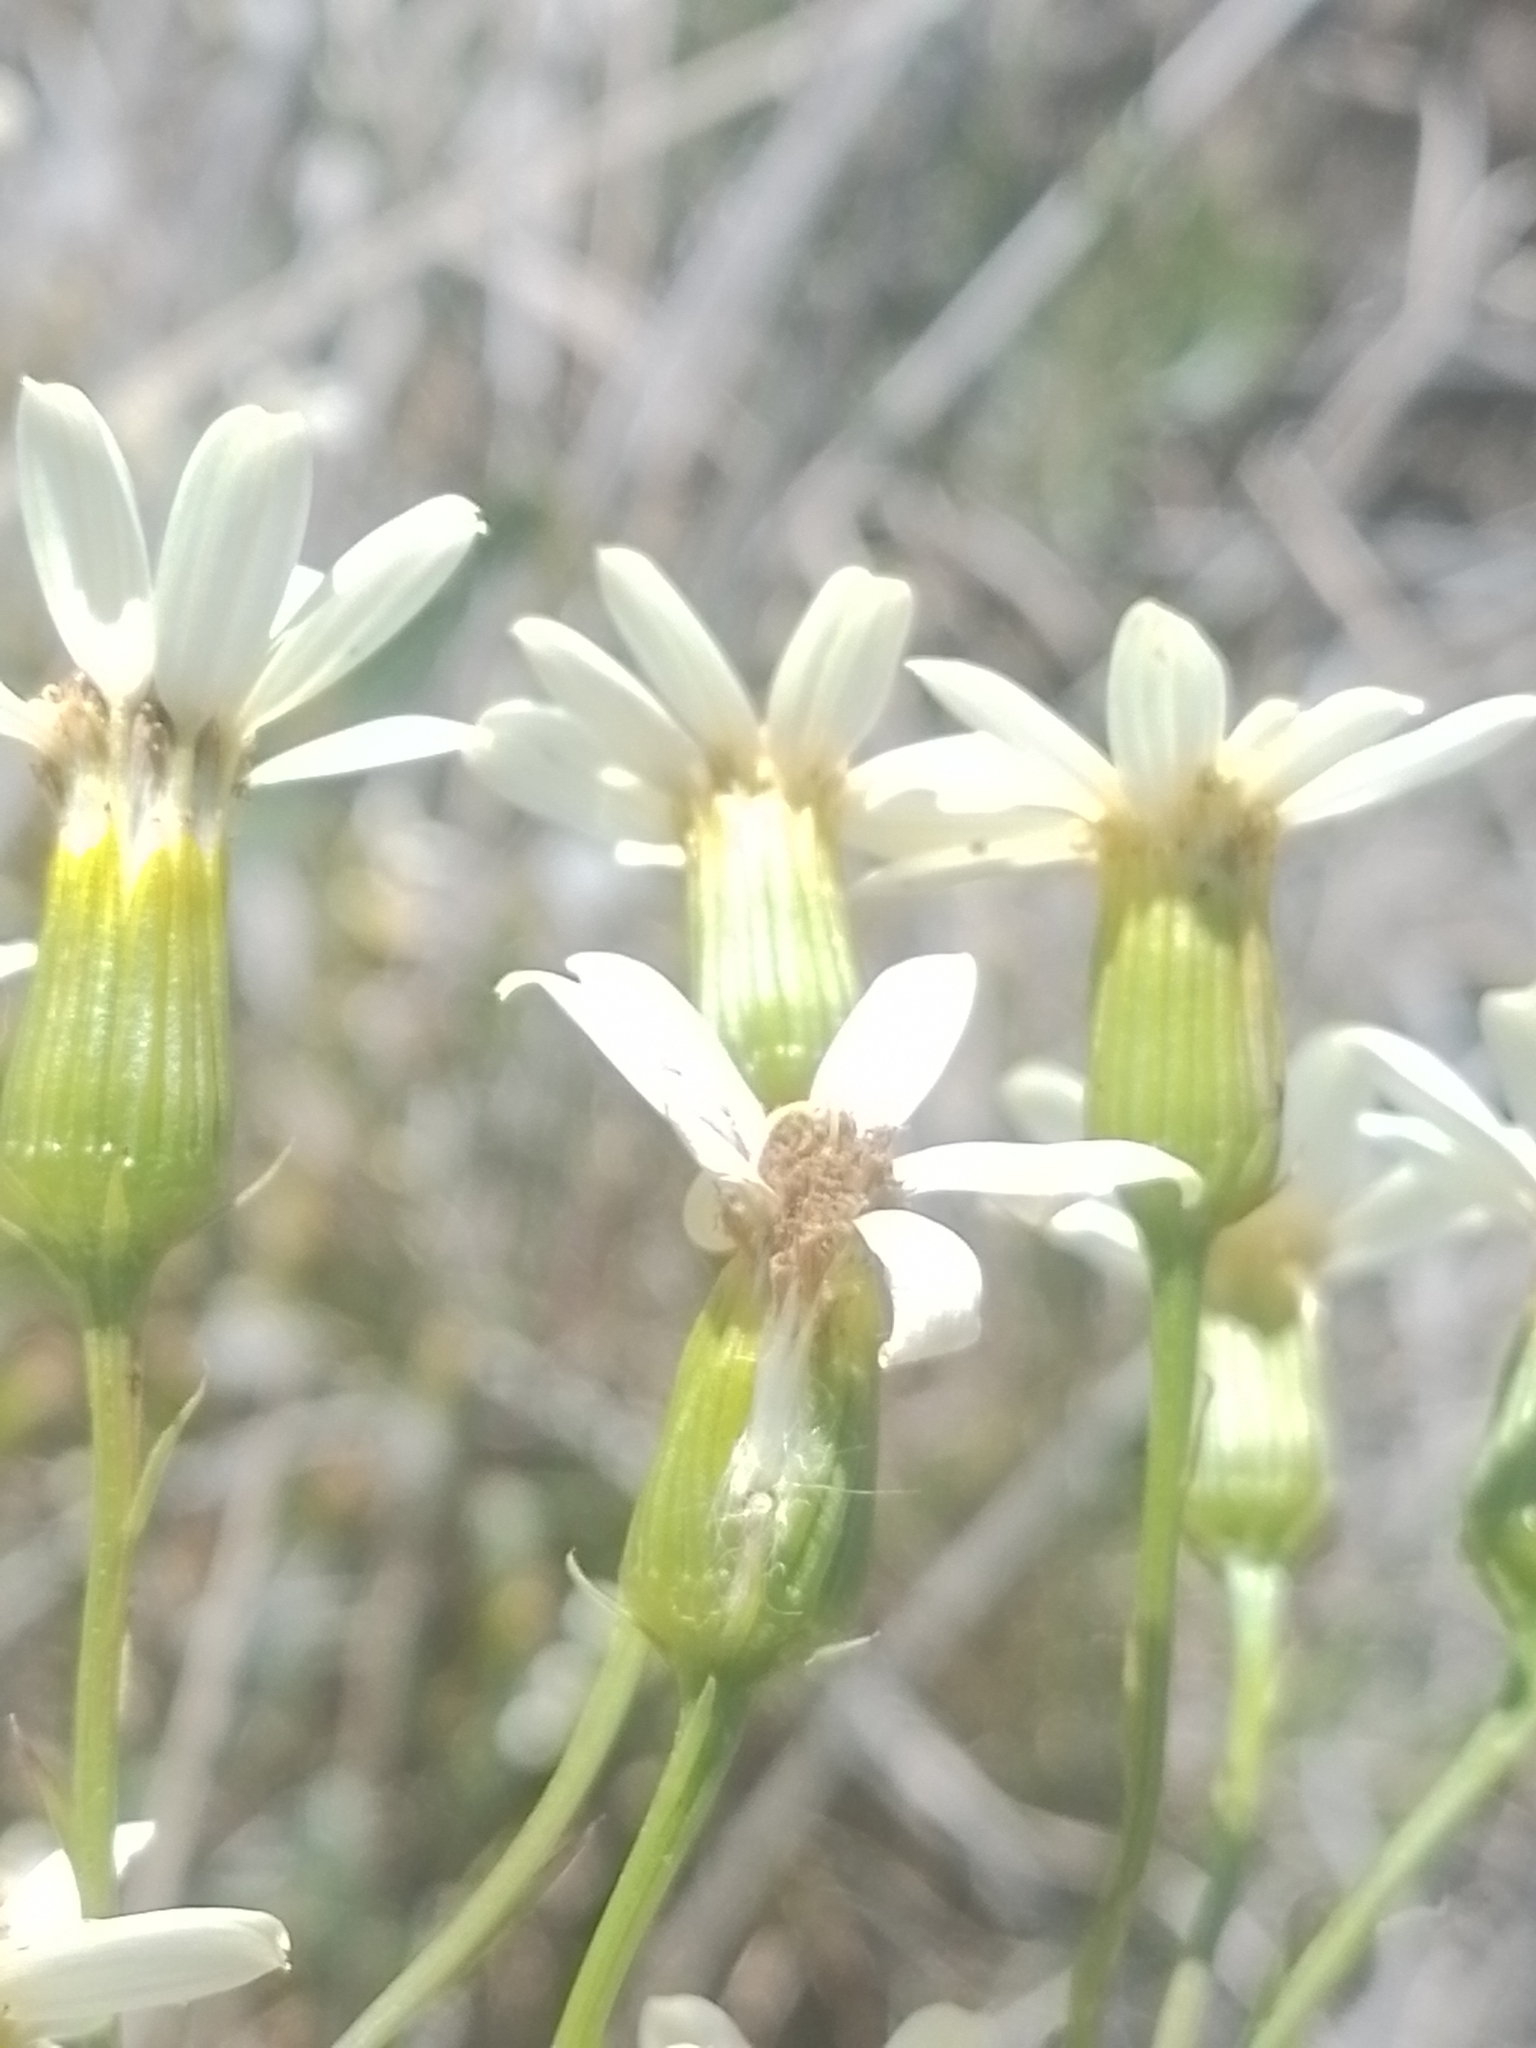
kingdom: Plantae
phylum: Tracheophyta
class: Magnoliopsida
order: Asterales
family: Asteraceae
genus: Senecio
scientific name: Senecio tweediei
